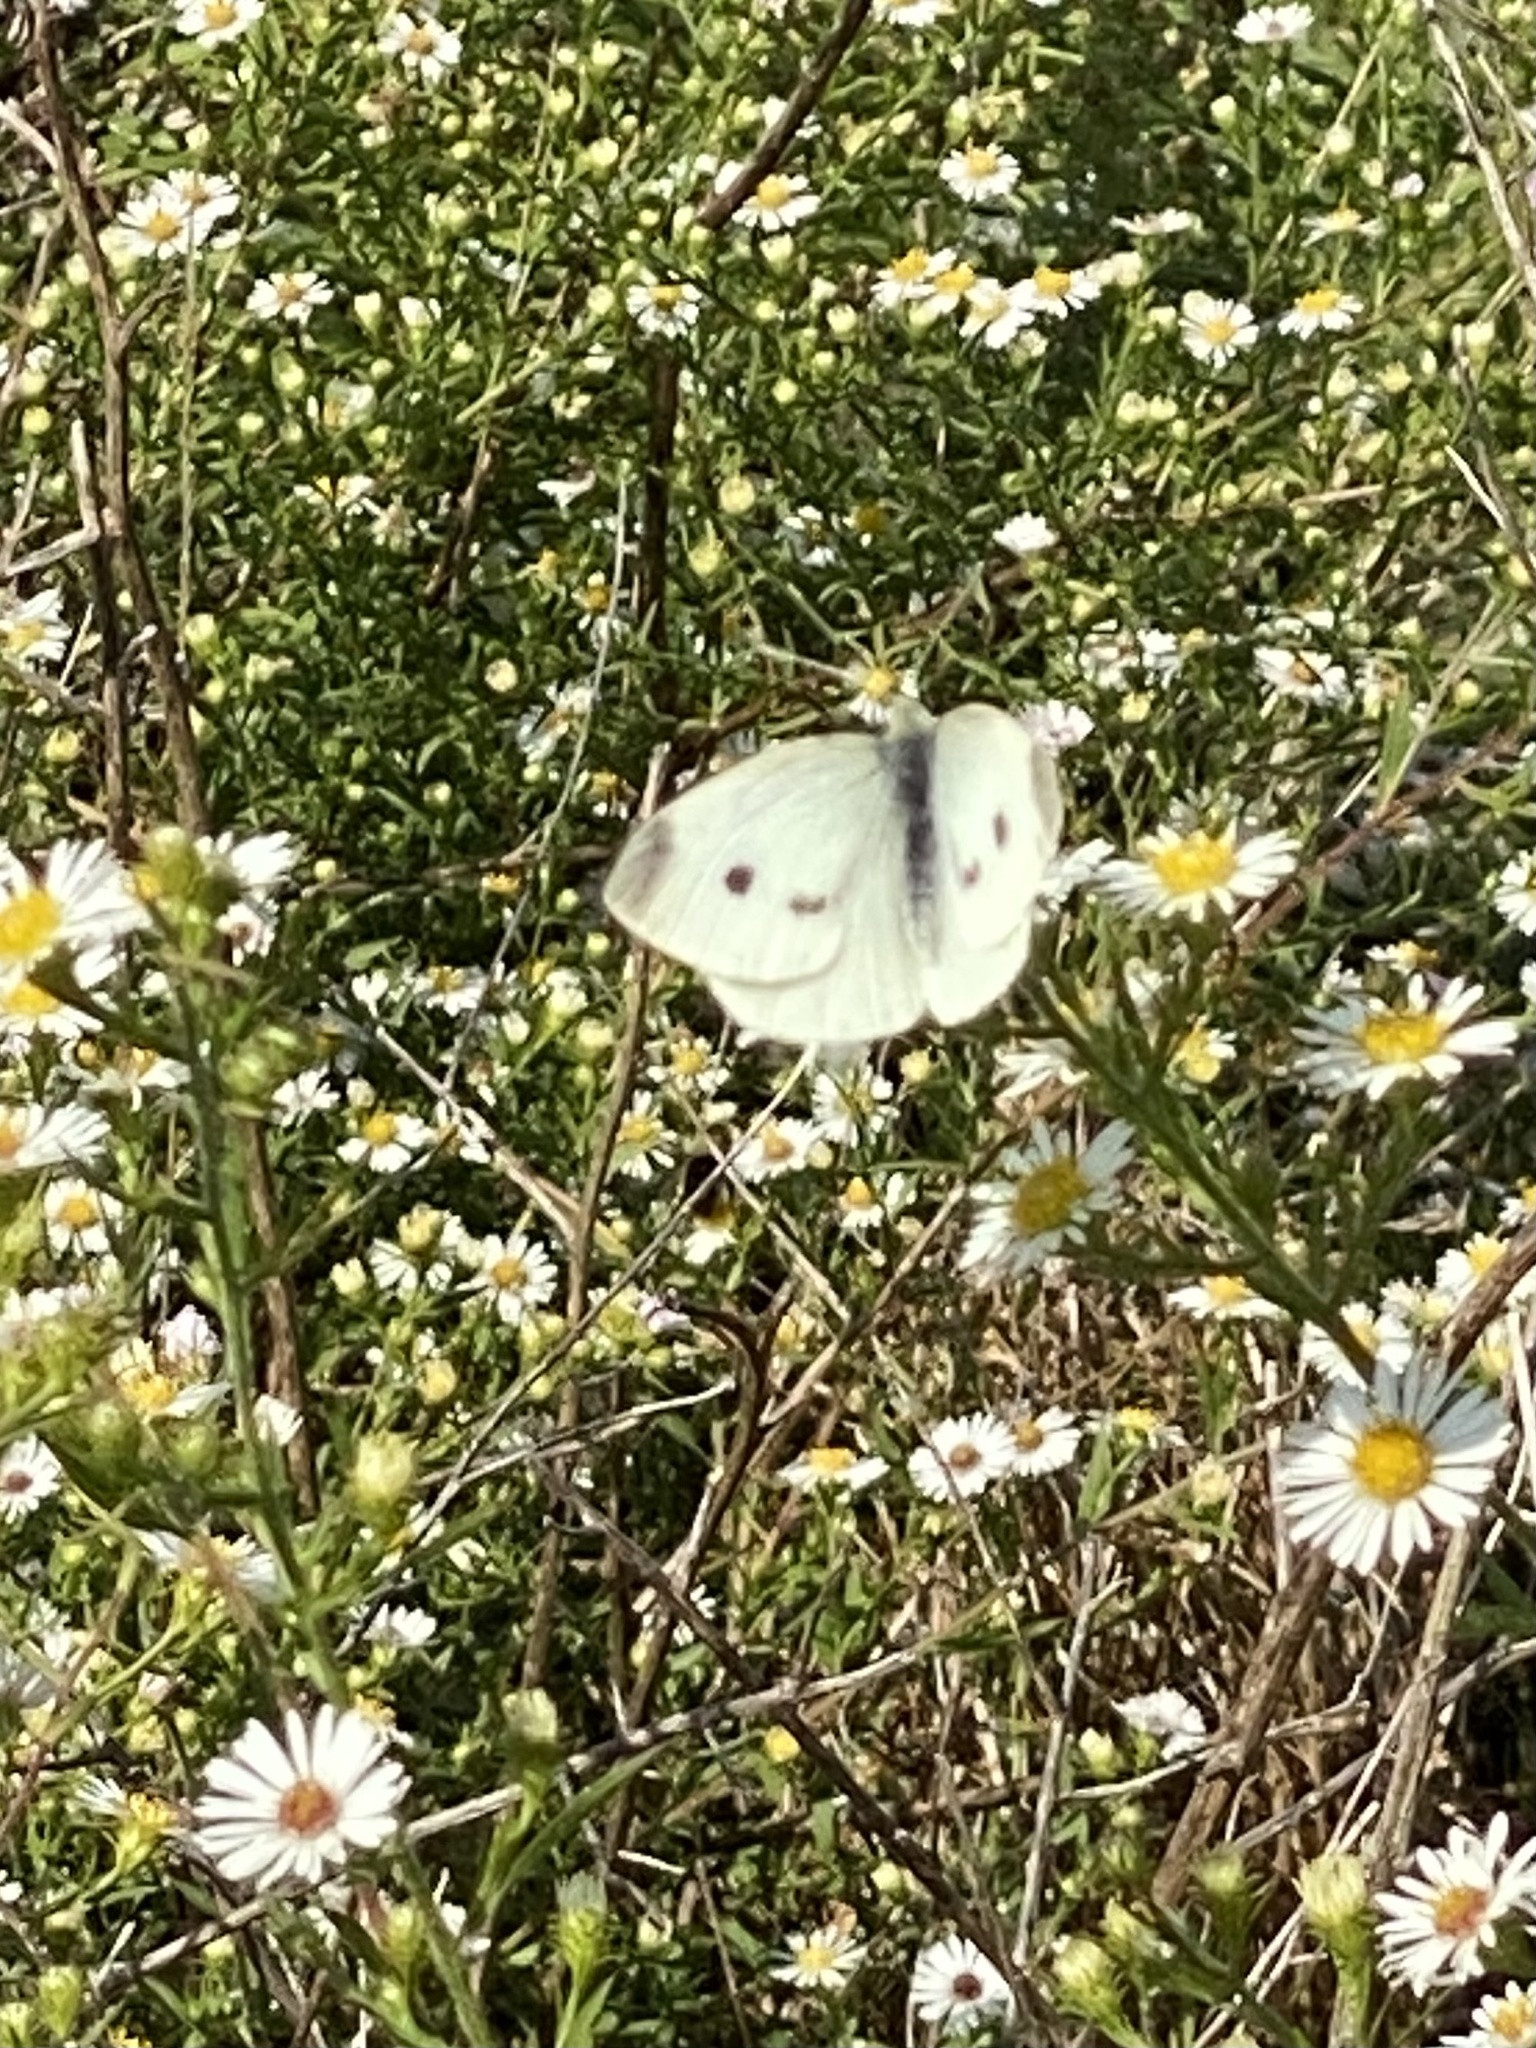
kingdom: Animalia
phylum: Arthropoda
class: Insecta
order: Lepidoptera
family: Pieridae
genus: Pieris
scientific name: Pieris rapae
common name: Small white
